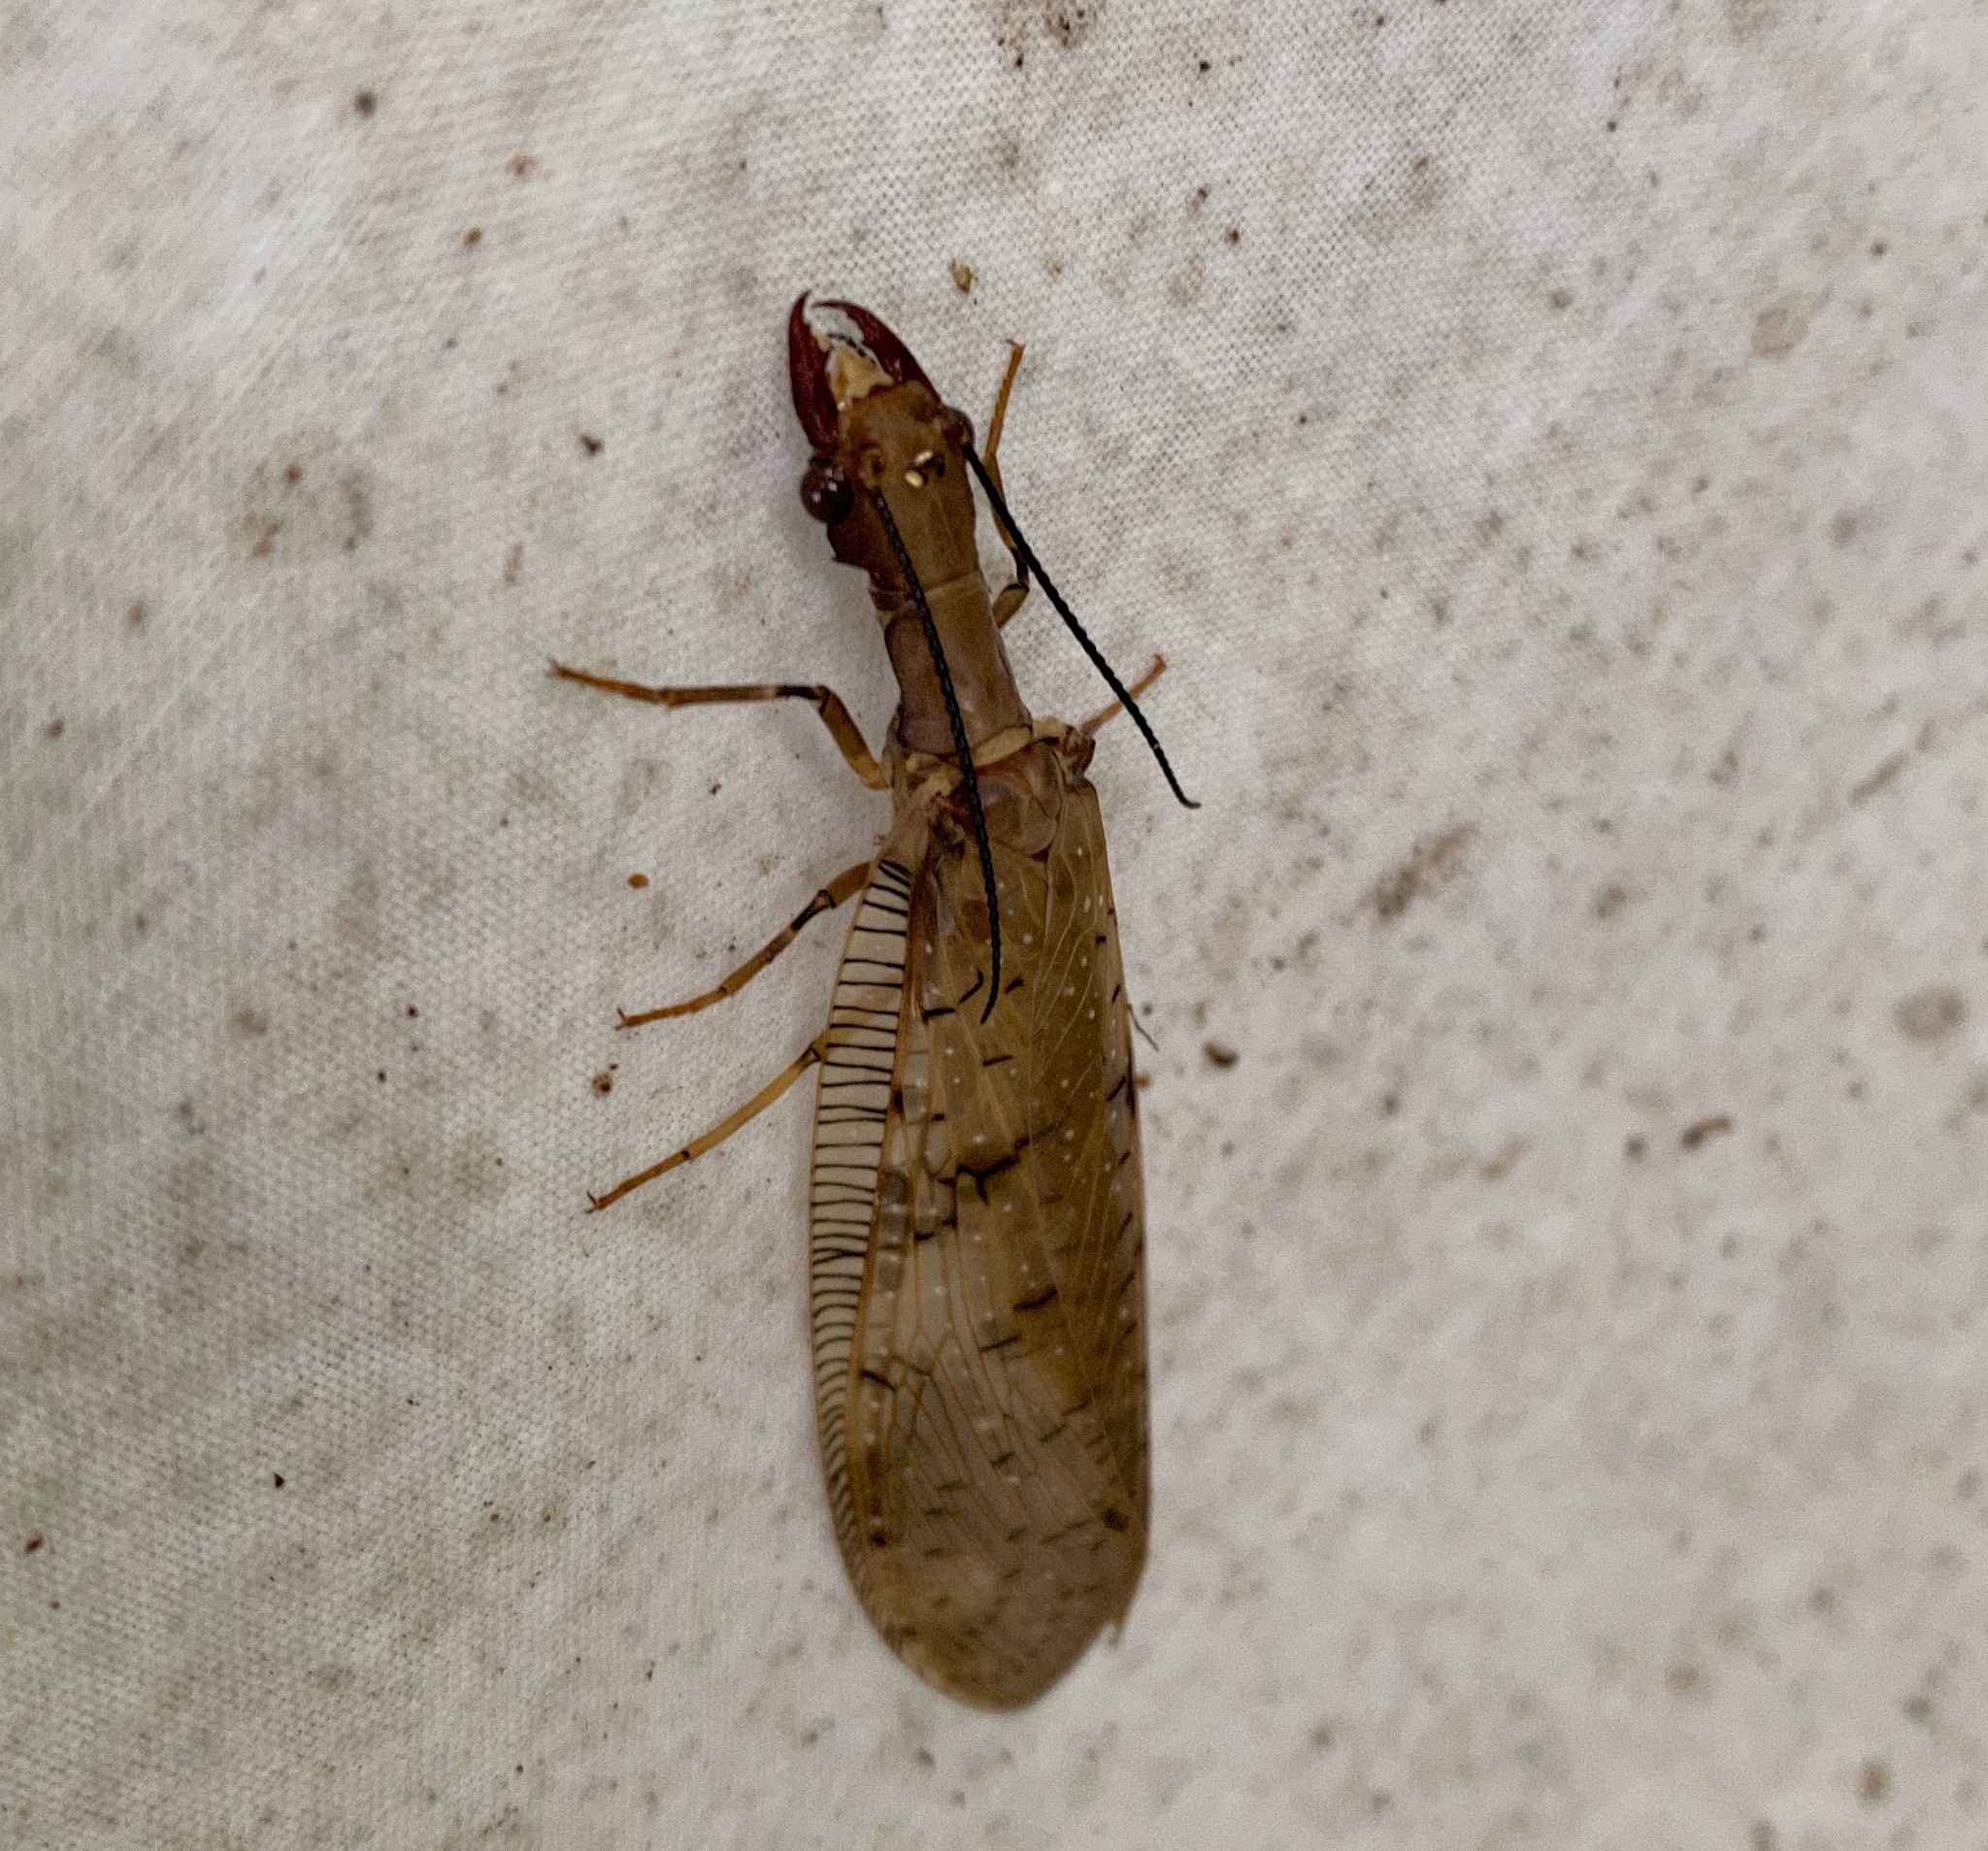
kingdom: Animalia
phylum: Arthropoda
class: Insecta
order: Megaloptera
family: Corydalidae
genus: Corydalus
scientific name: Corydalus flavicornis
